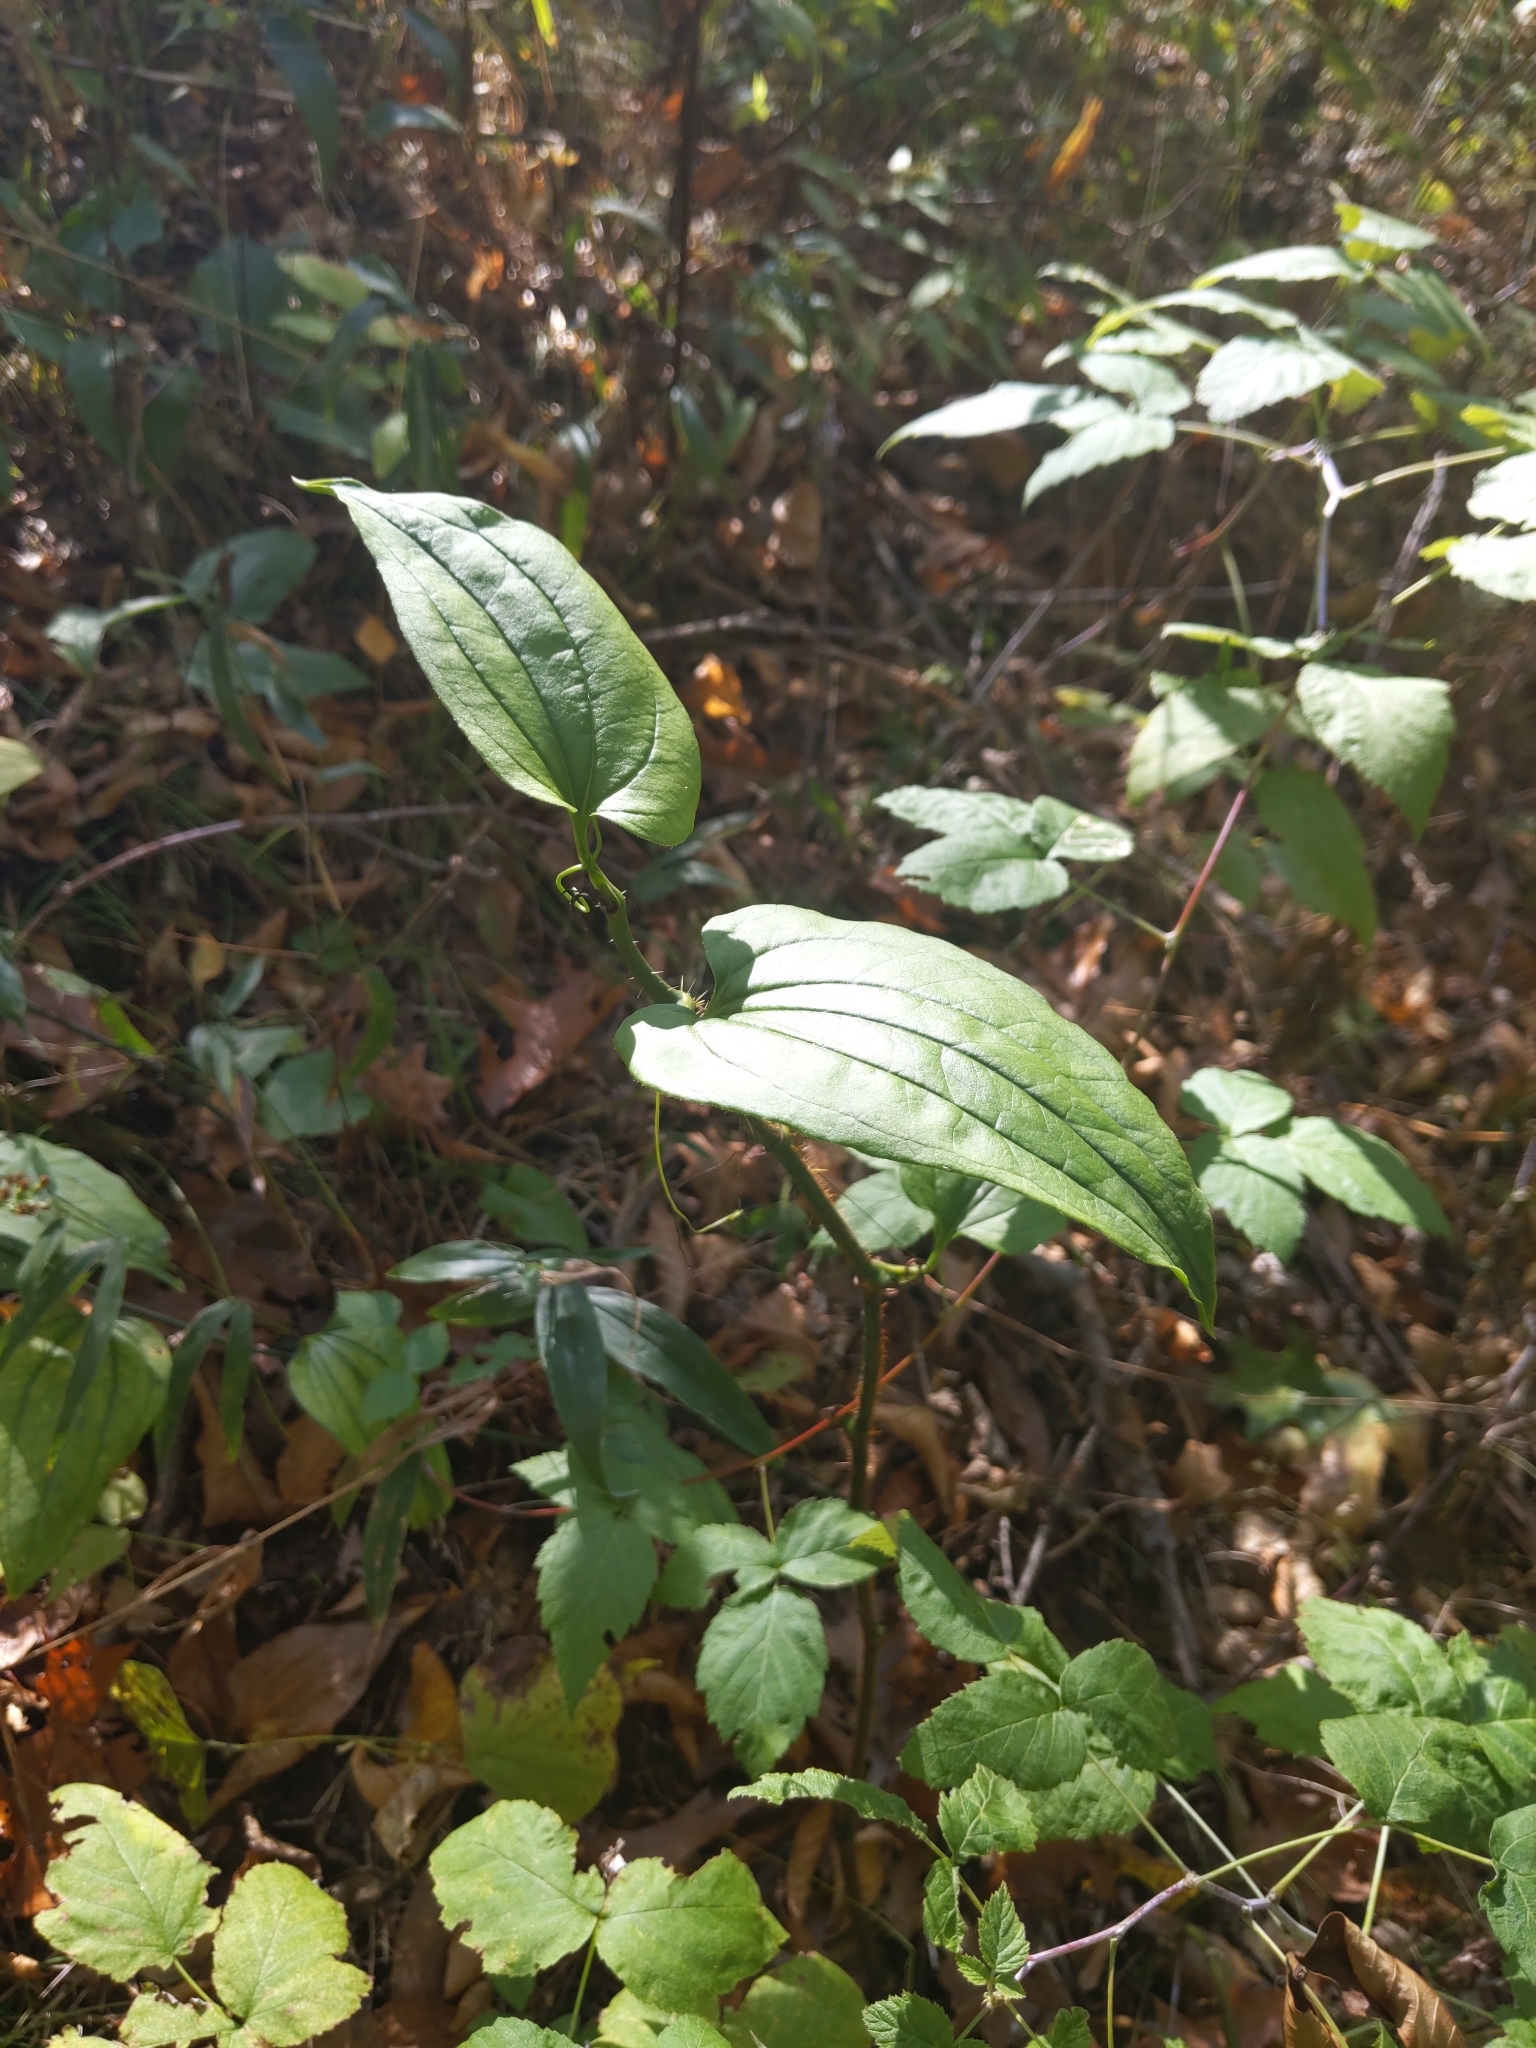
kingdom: Plantae
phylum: Tracheophyta
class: Liliopsida
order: Liliales
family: Smilacaceae
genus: Smilax
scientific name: Smilax tamnoides
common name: Hellfetter
